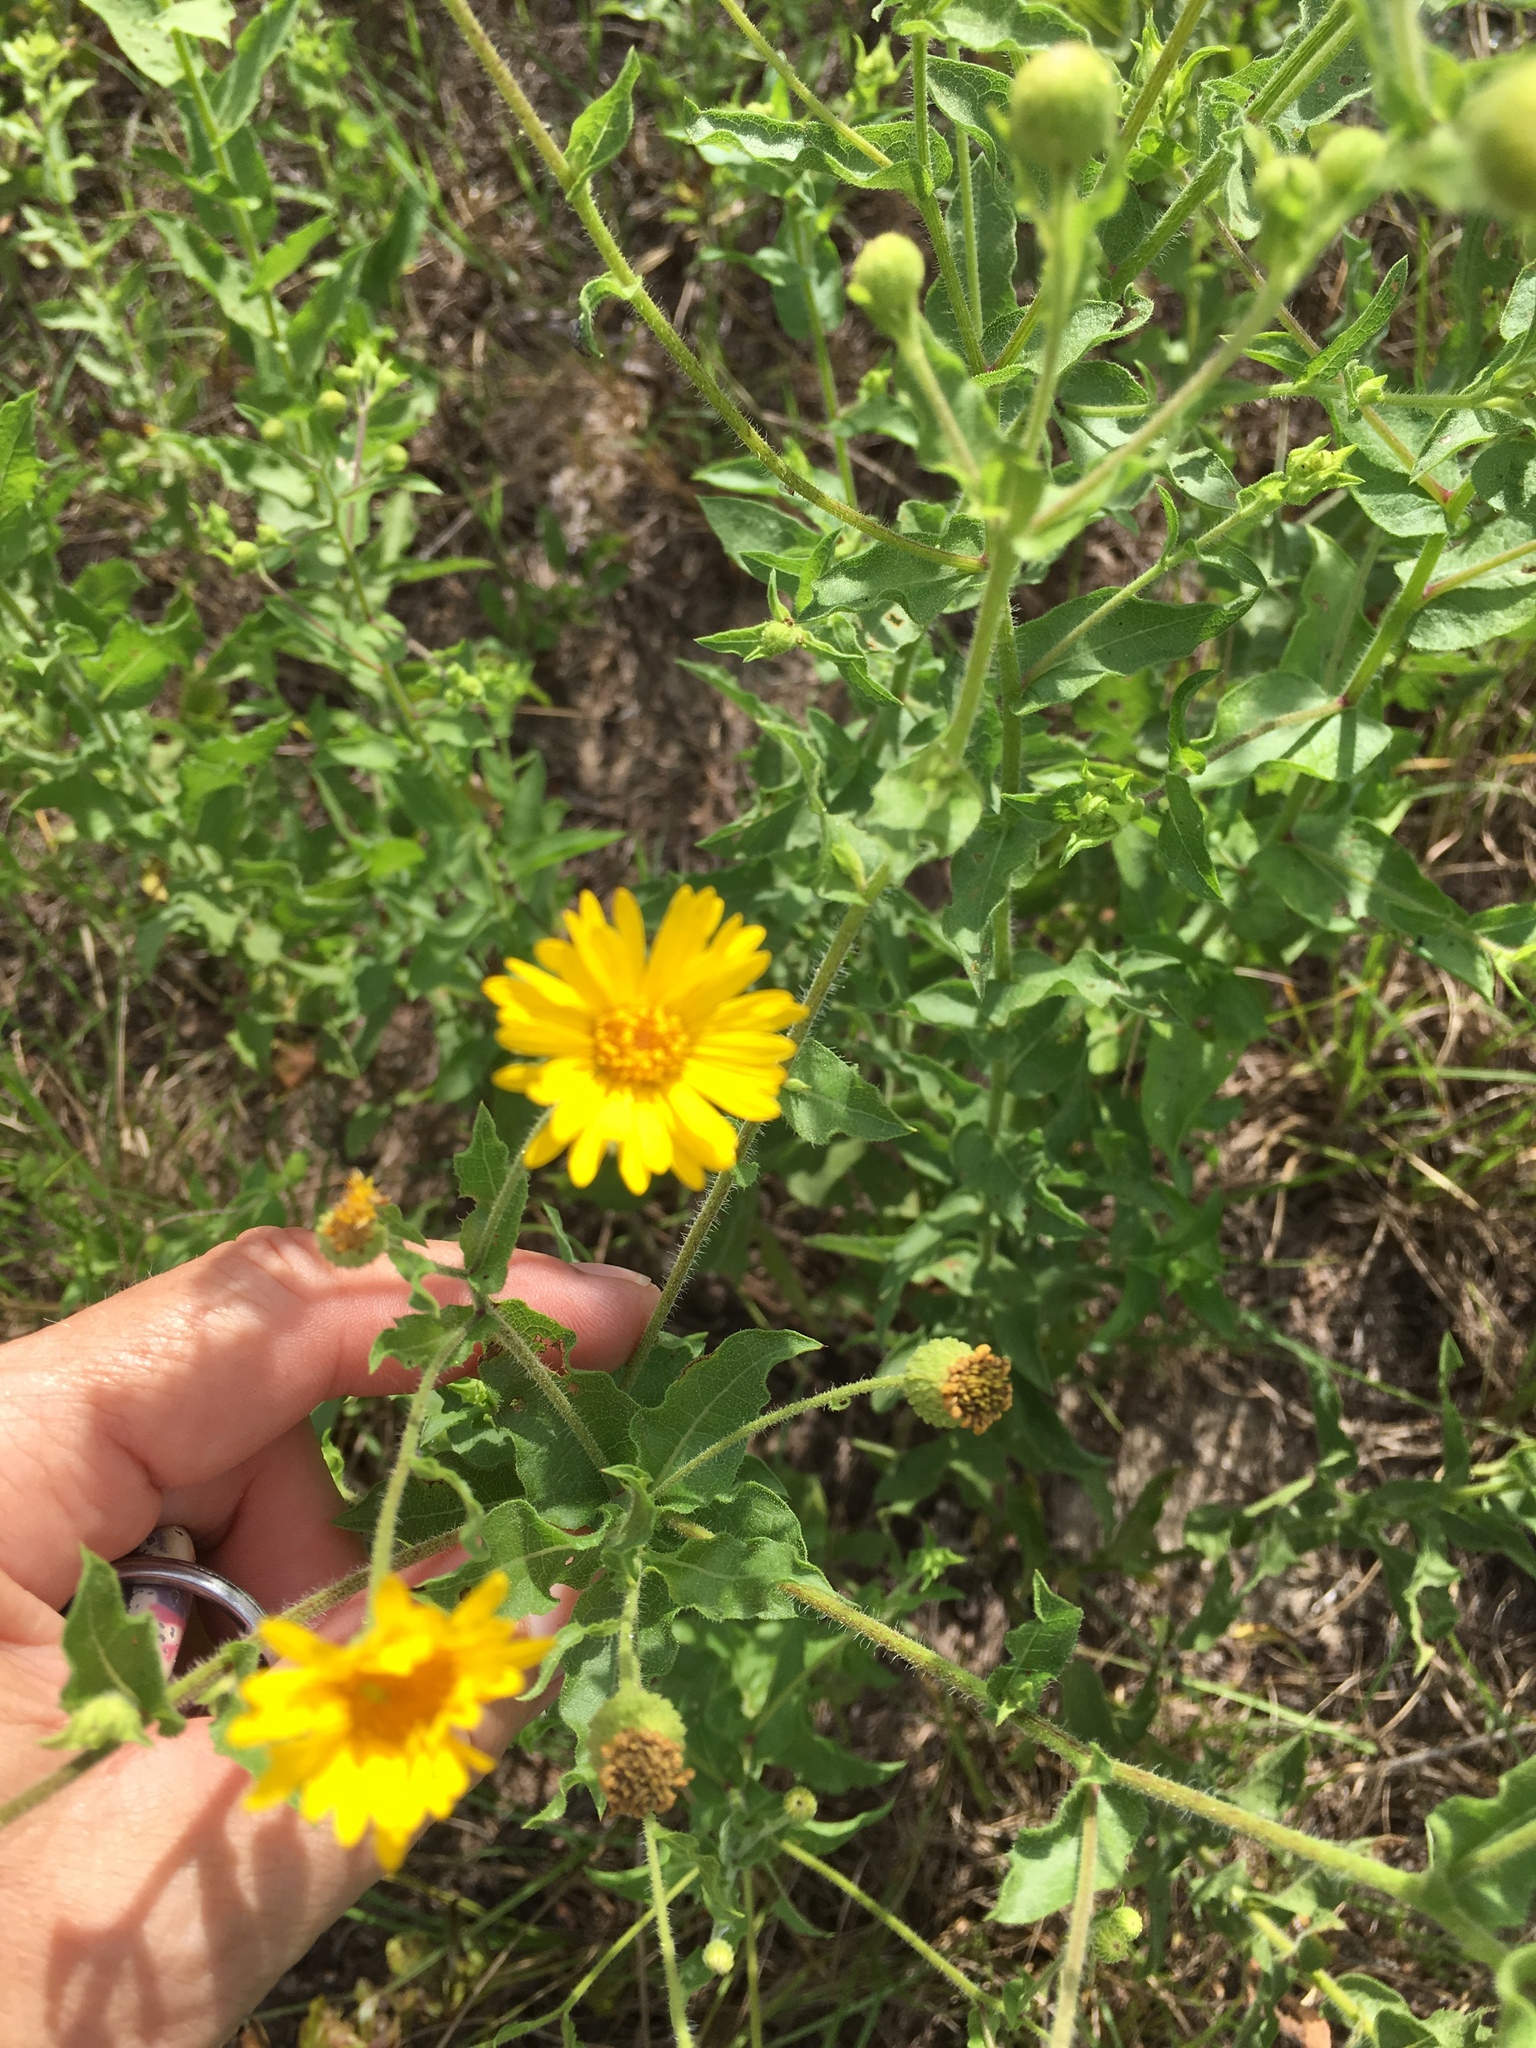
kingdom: Plantae
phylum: Tracheophyta
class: Magnoliopsida
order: Asterales
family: Asteraceae
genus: Heterotheca
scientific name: Heterotheca subaxillaris
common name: Camphorweed
